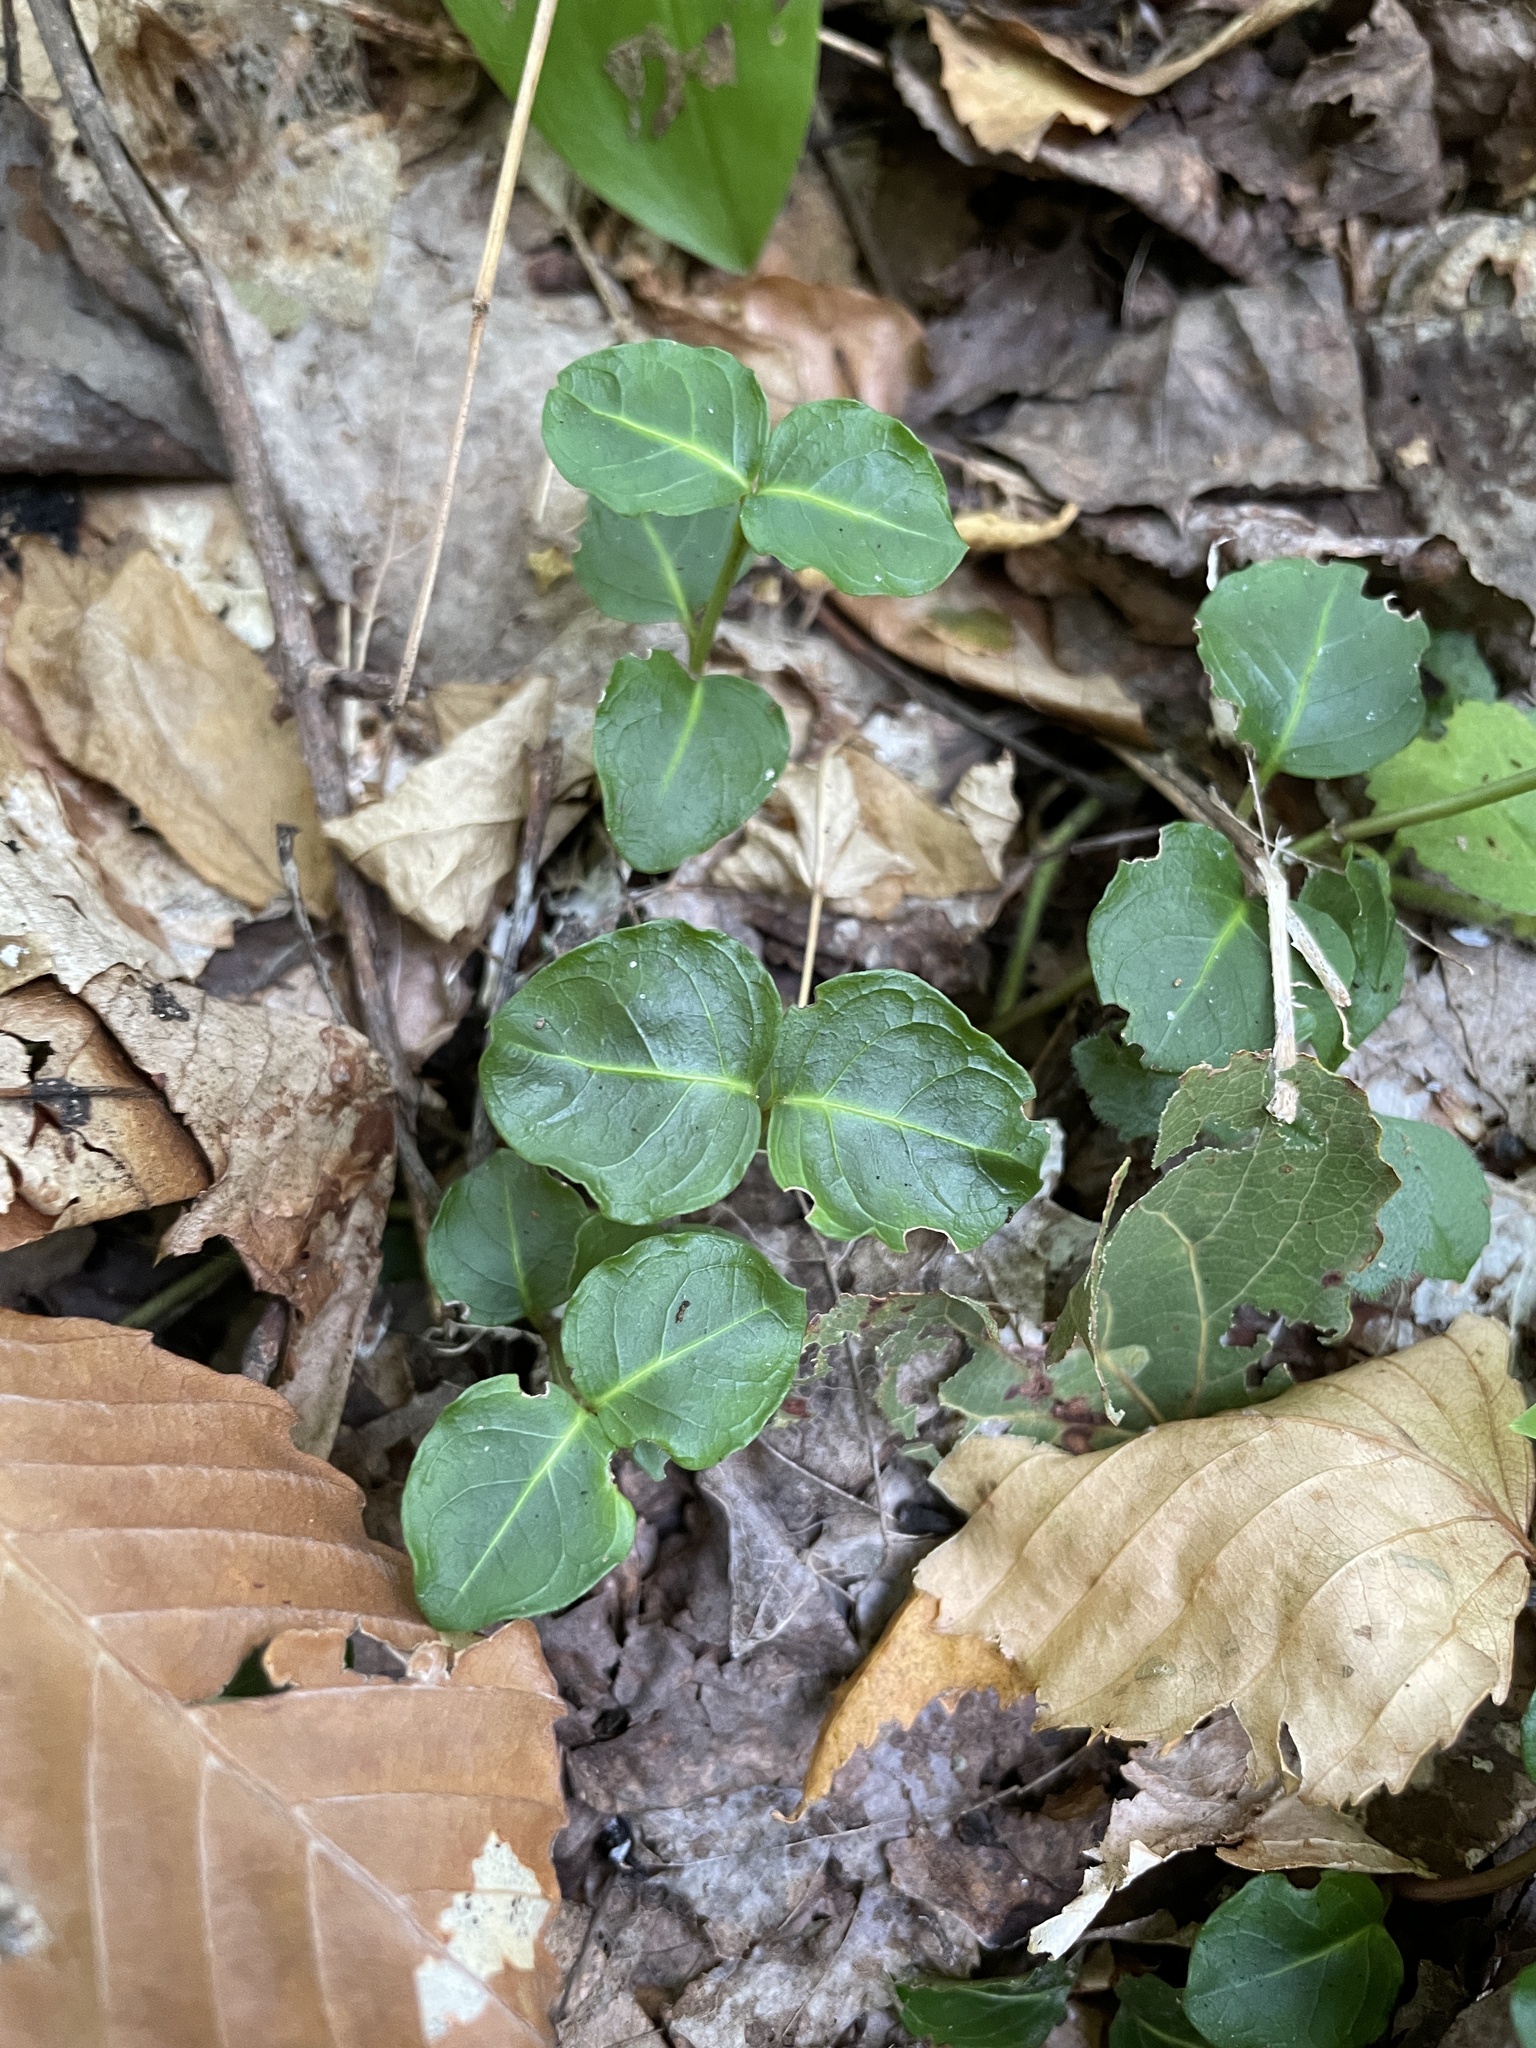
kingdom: Plantae
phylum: Tracheophyta
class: Magnoliopsida
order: Gentianales
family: Rubiaceae
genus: Mitchella
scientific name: Mitchella repens
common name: Partridge-berry
